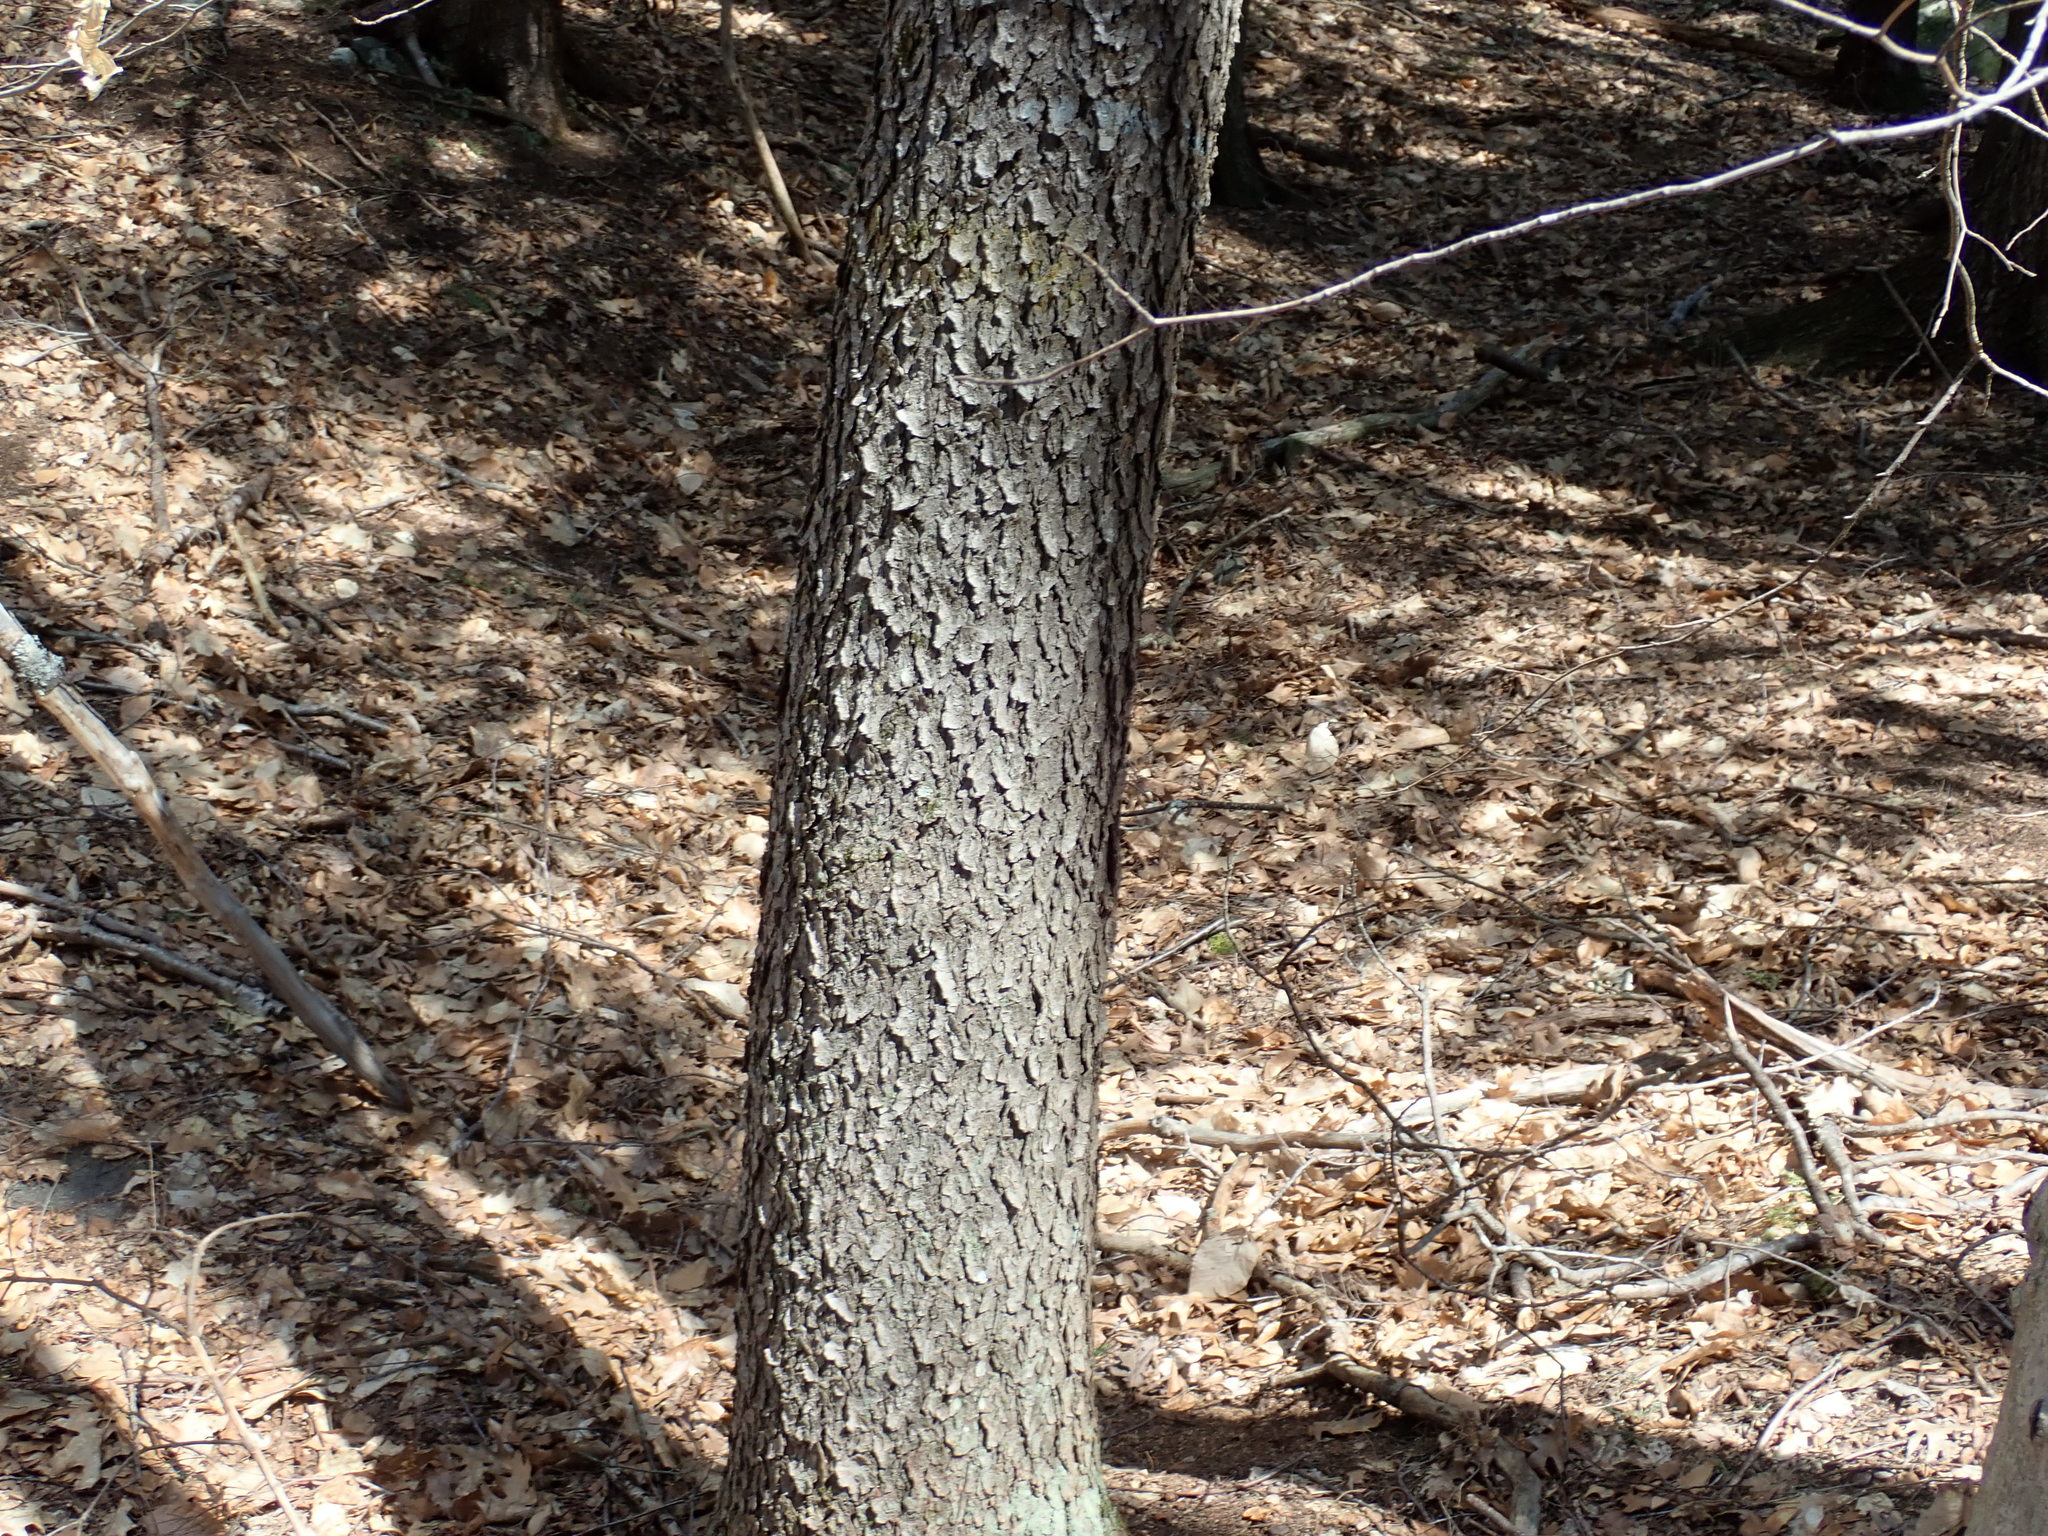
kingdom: Plantae
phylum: Tracheophyta
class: Magnoliopsida
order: Rosales
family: Rosaceae
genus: Prunus
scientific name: Prunus serotina
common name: Black cherry
